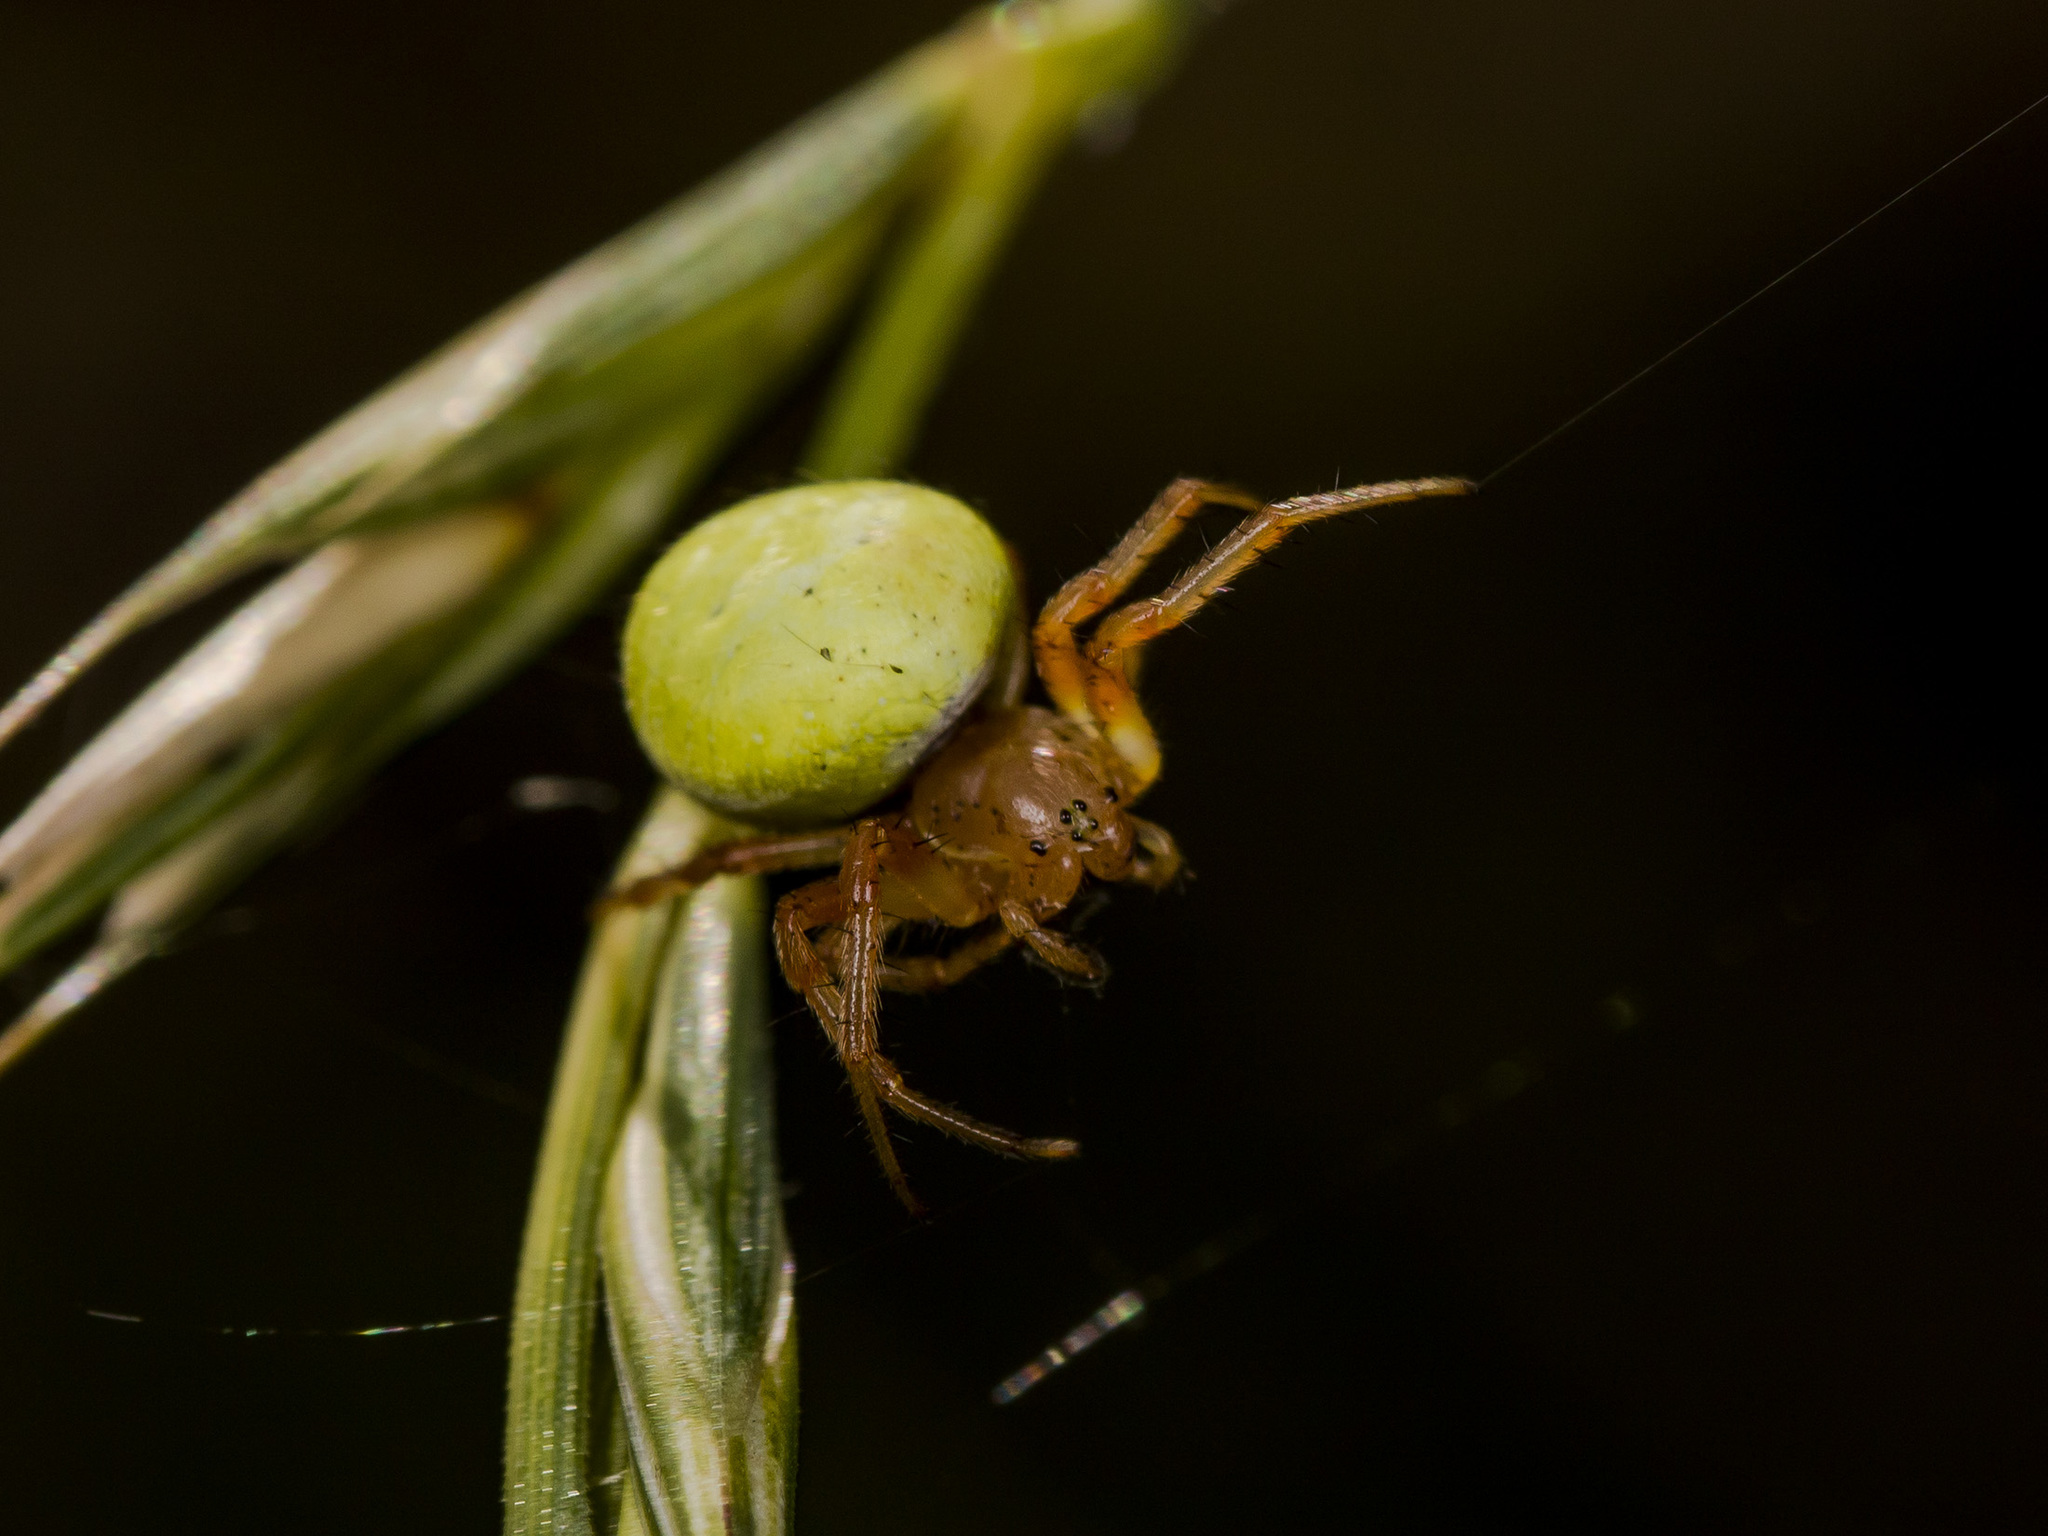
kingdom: Animalia
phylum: Arthropoda
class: Arachnida
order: Araneae
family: Araneidae
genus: Araniella
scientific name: Araniella displicata
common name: Sixspotted orb weaver
